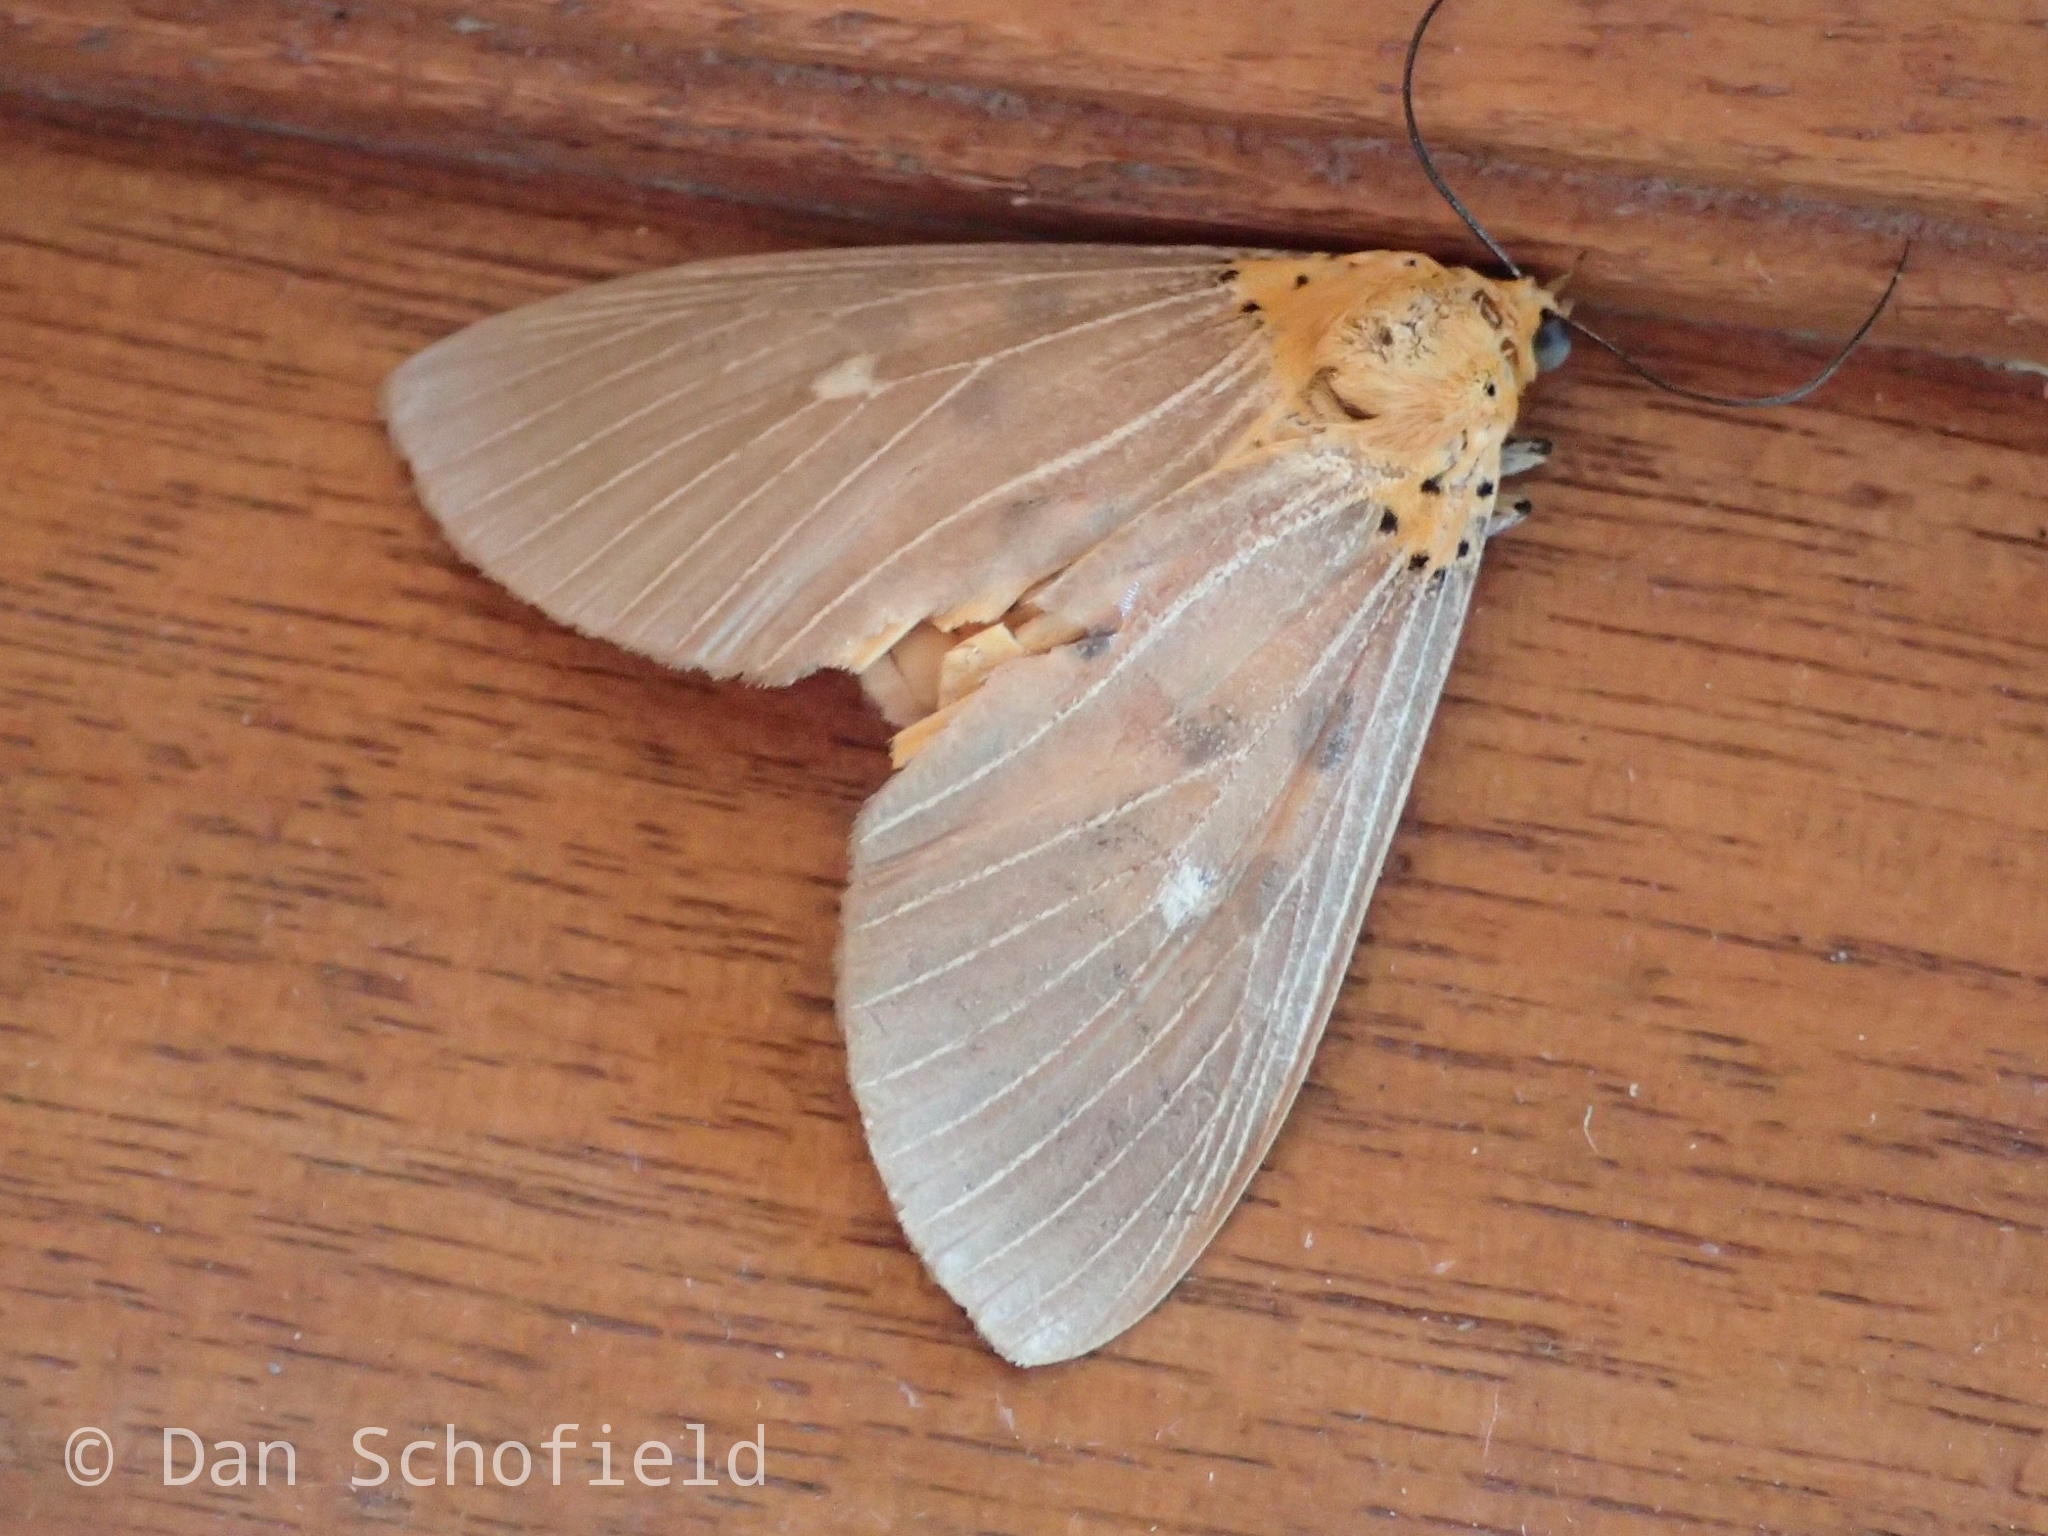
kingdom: Animalia
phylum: Arthropoda
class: Insecta
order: Lepidoptera
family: Erebidae
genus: Asota
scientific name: Asota caricae
